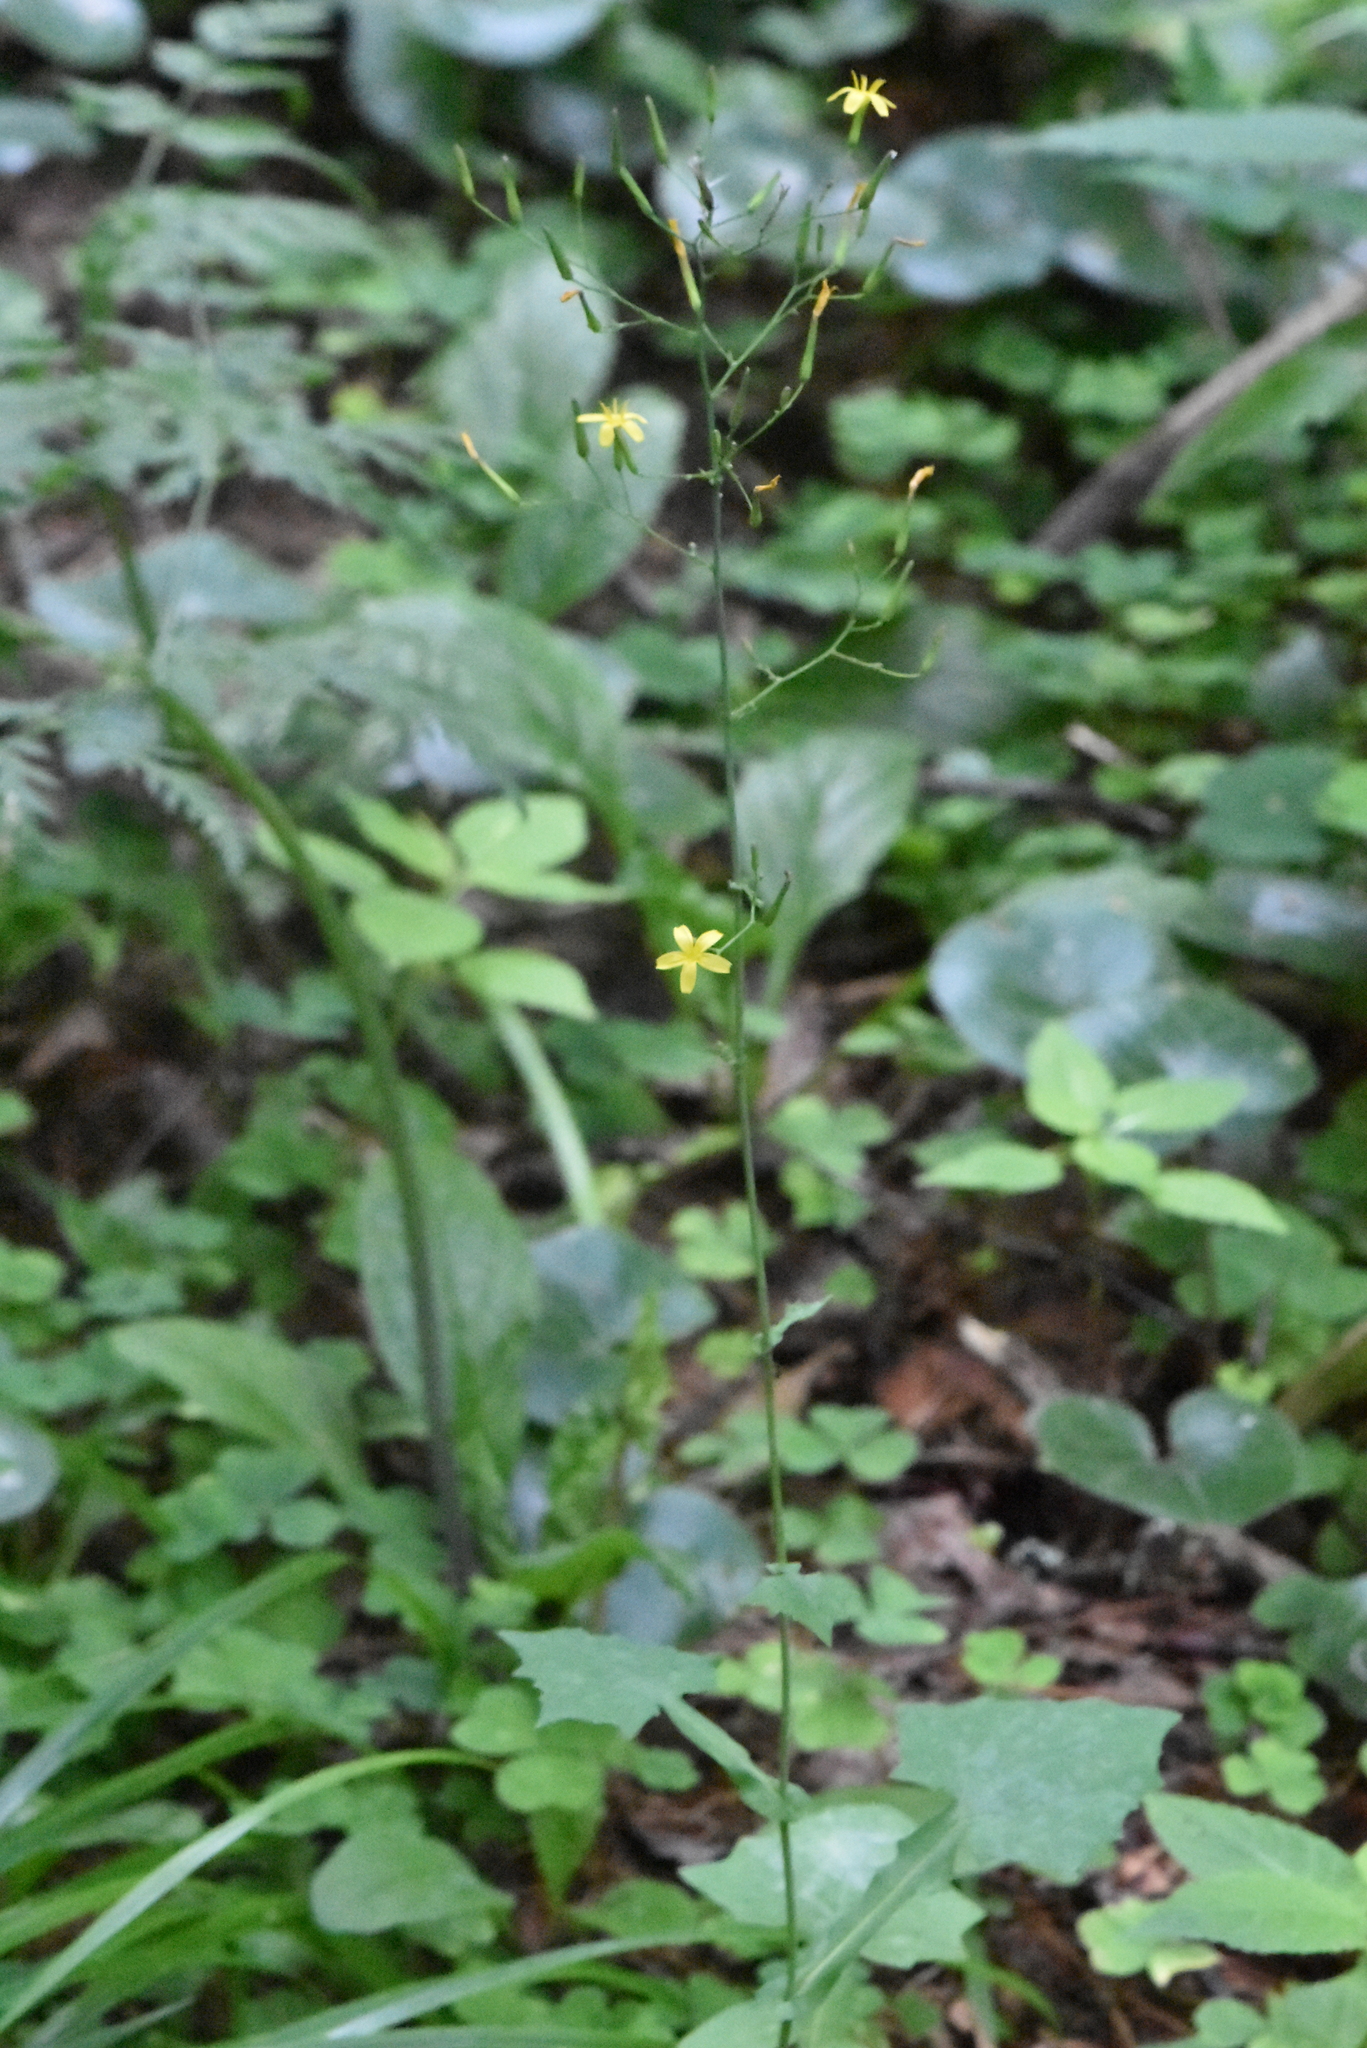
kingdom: Plantae
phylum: Tracheophyta
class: Magnoliopsida
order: Asterales
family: Asteraceae
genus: Mycelis
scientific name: Mycelis muralis
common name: Wall lettuce
